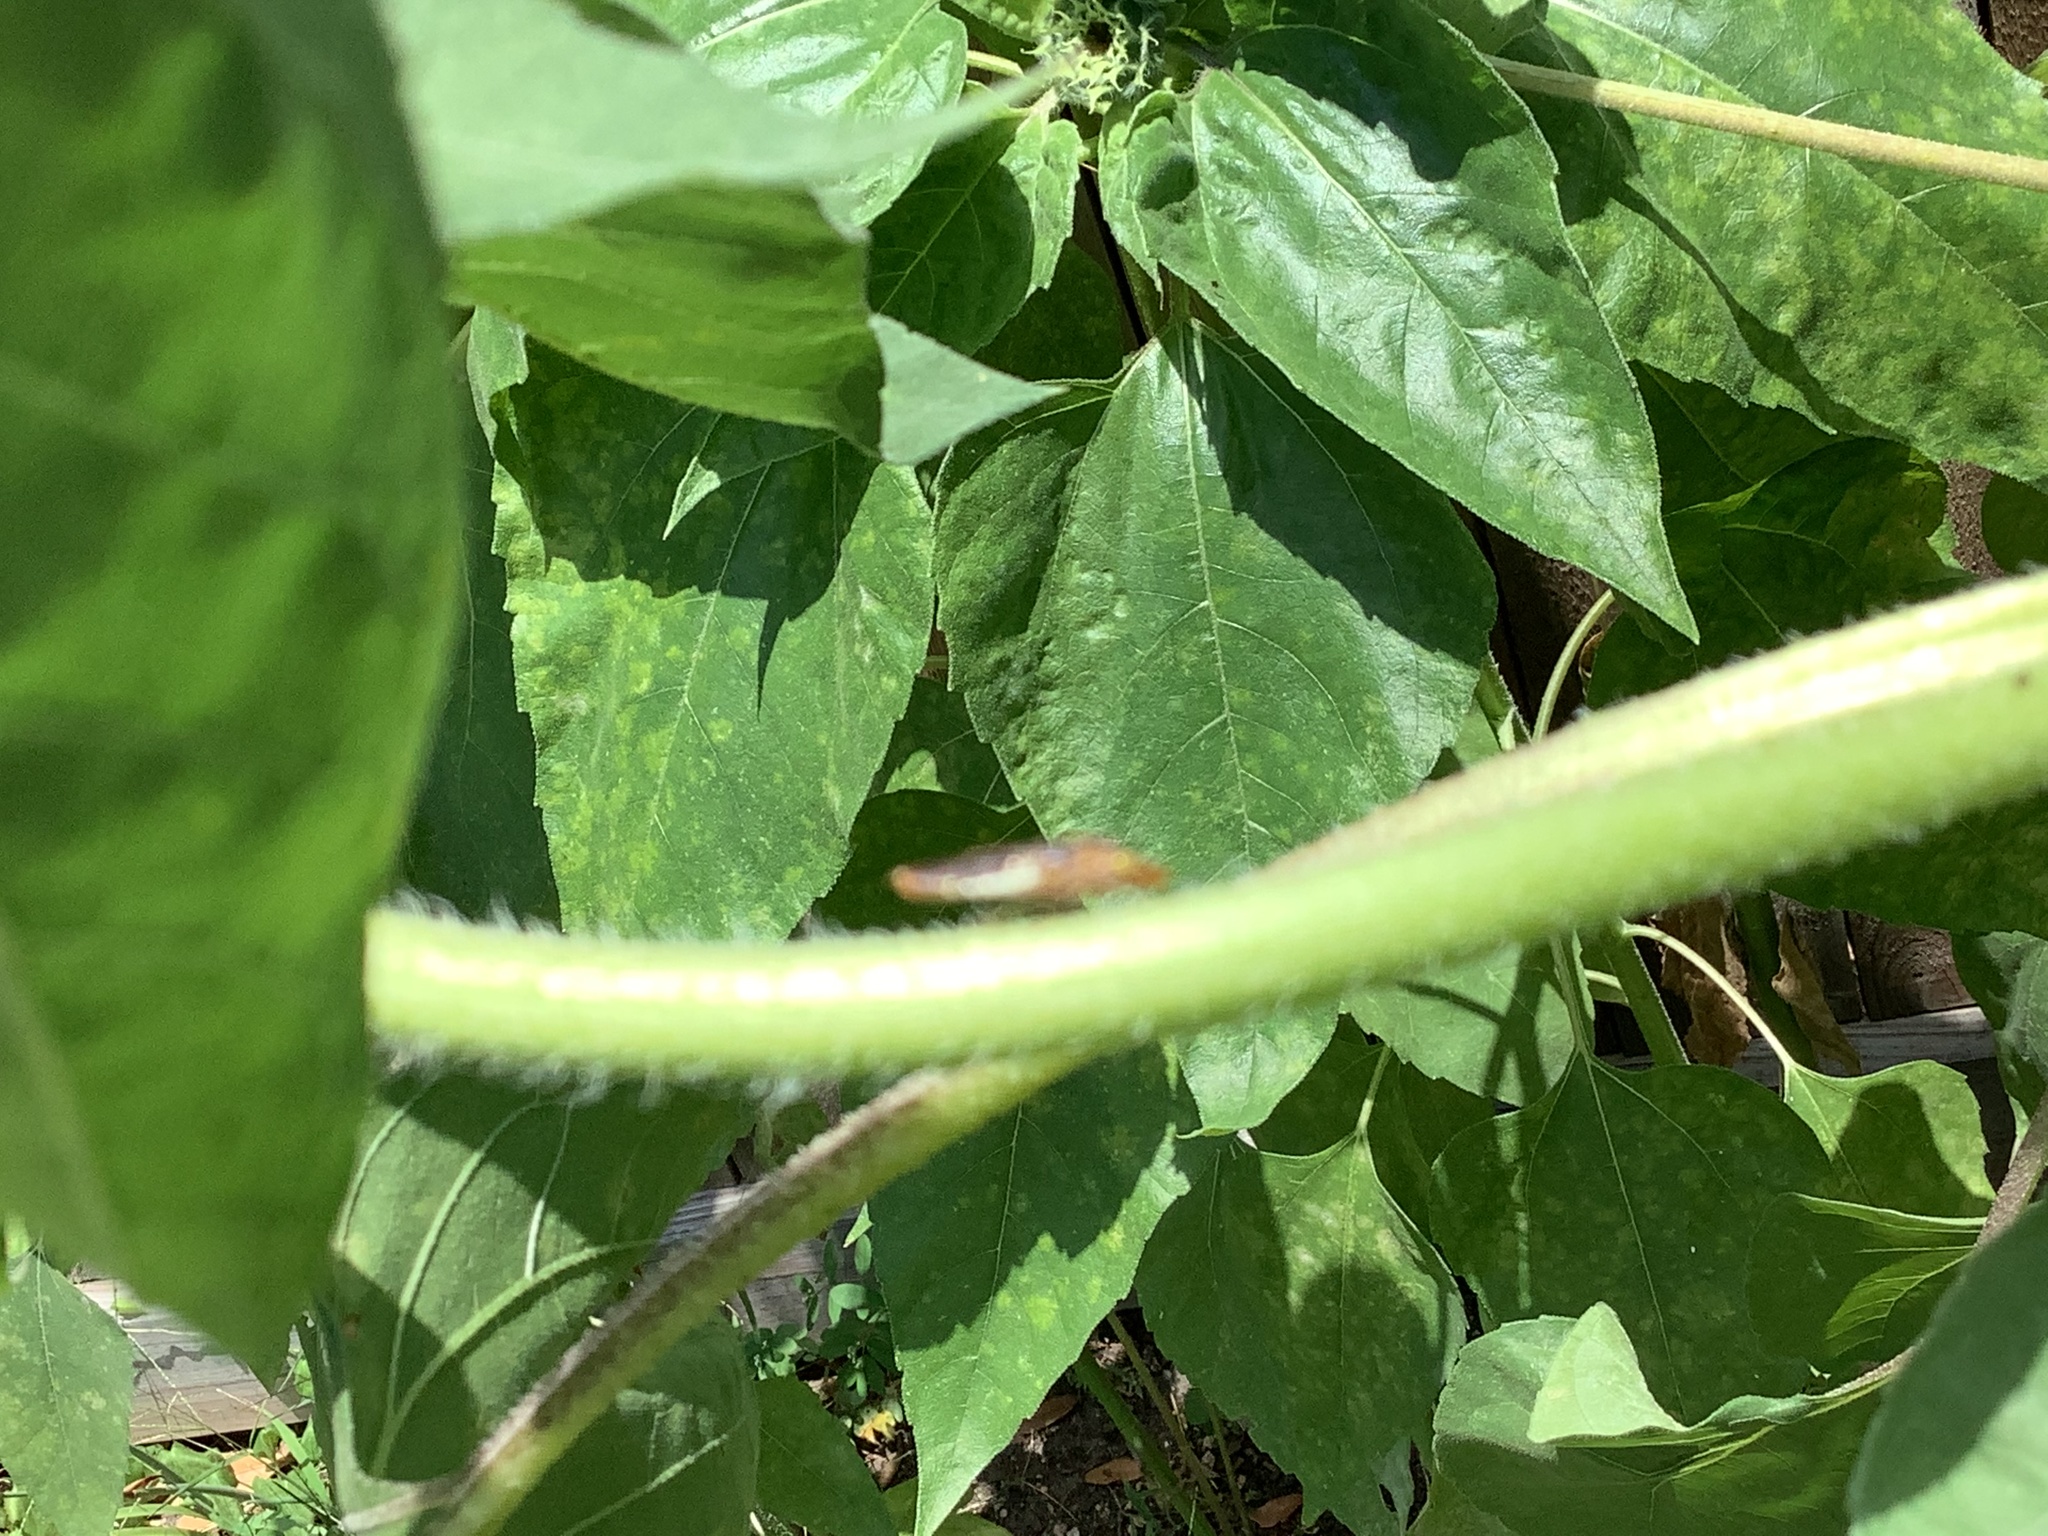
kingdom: Animalia
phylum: Arthropoda
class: Insecta
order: Hemiptera
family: Cicadellidae
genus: Homalodisca
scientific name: Homalodisca vitripennis
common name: Glassy-winged sharpshooter
